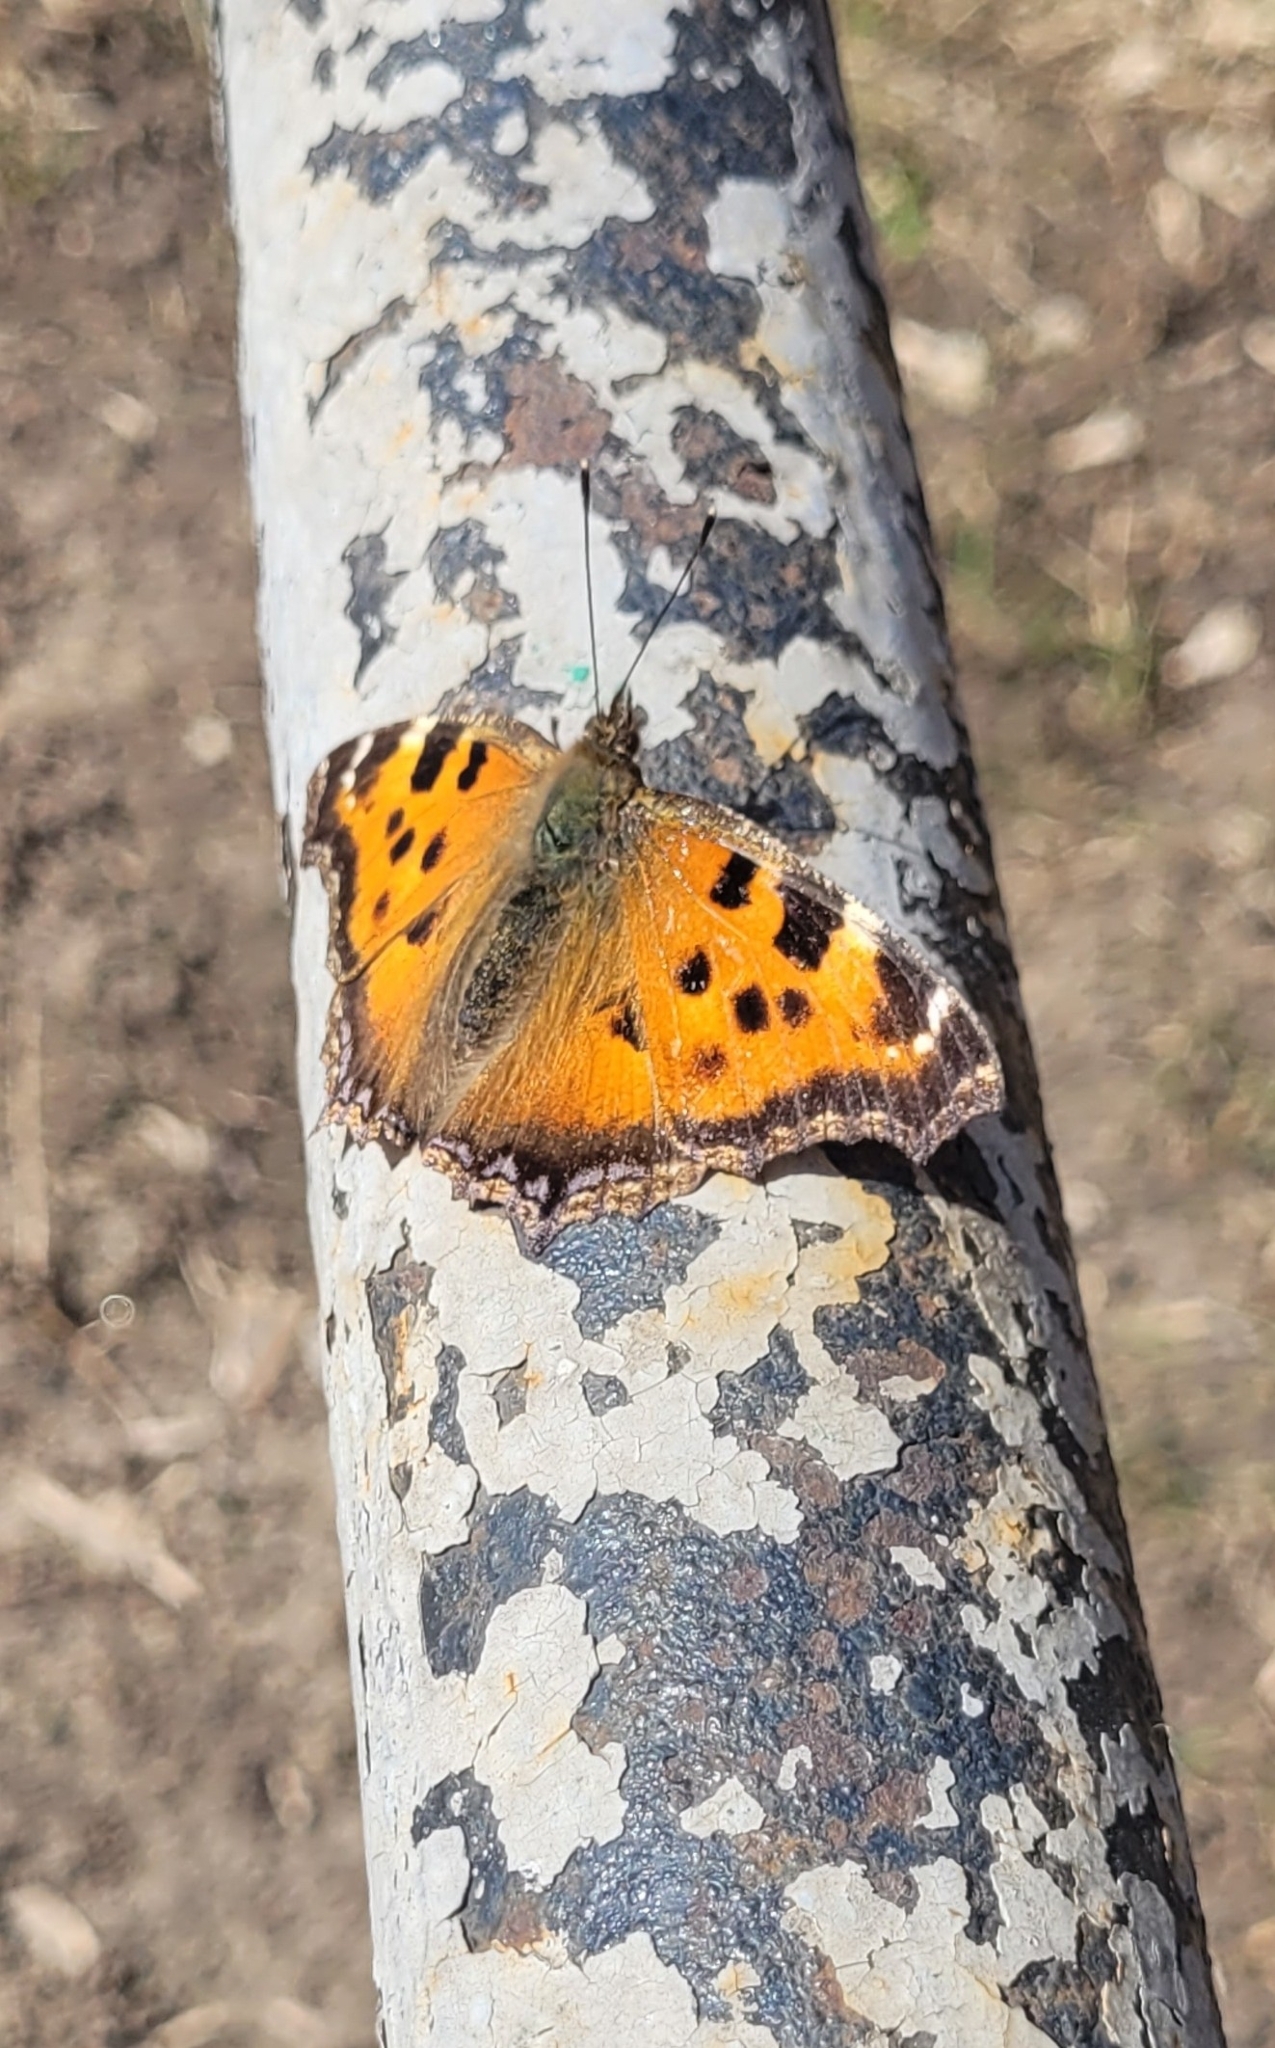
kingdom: Animalia
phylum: Arthropoda
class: Insecta
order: Lepidoptera
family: Nymphalidae
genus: Nymphalis
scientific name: Nymphalis xanthomelas
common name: Scarce tortoiseshell
